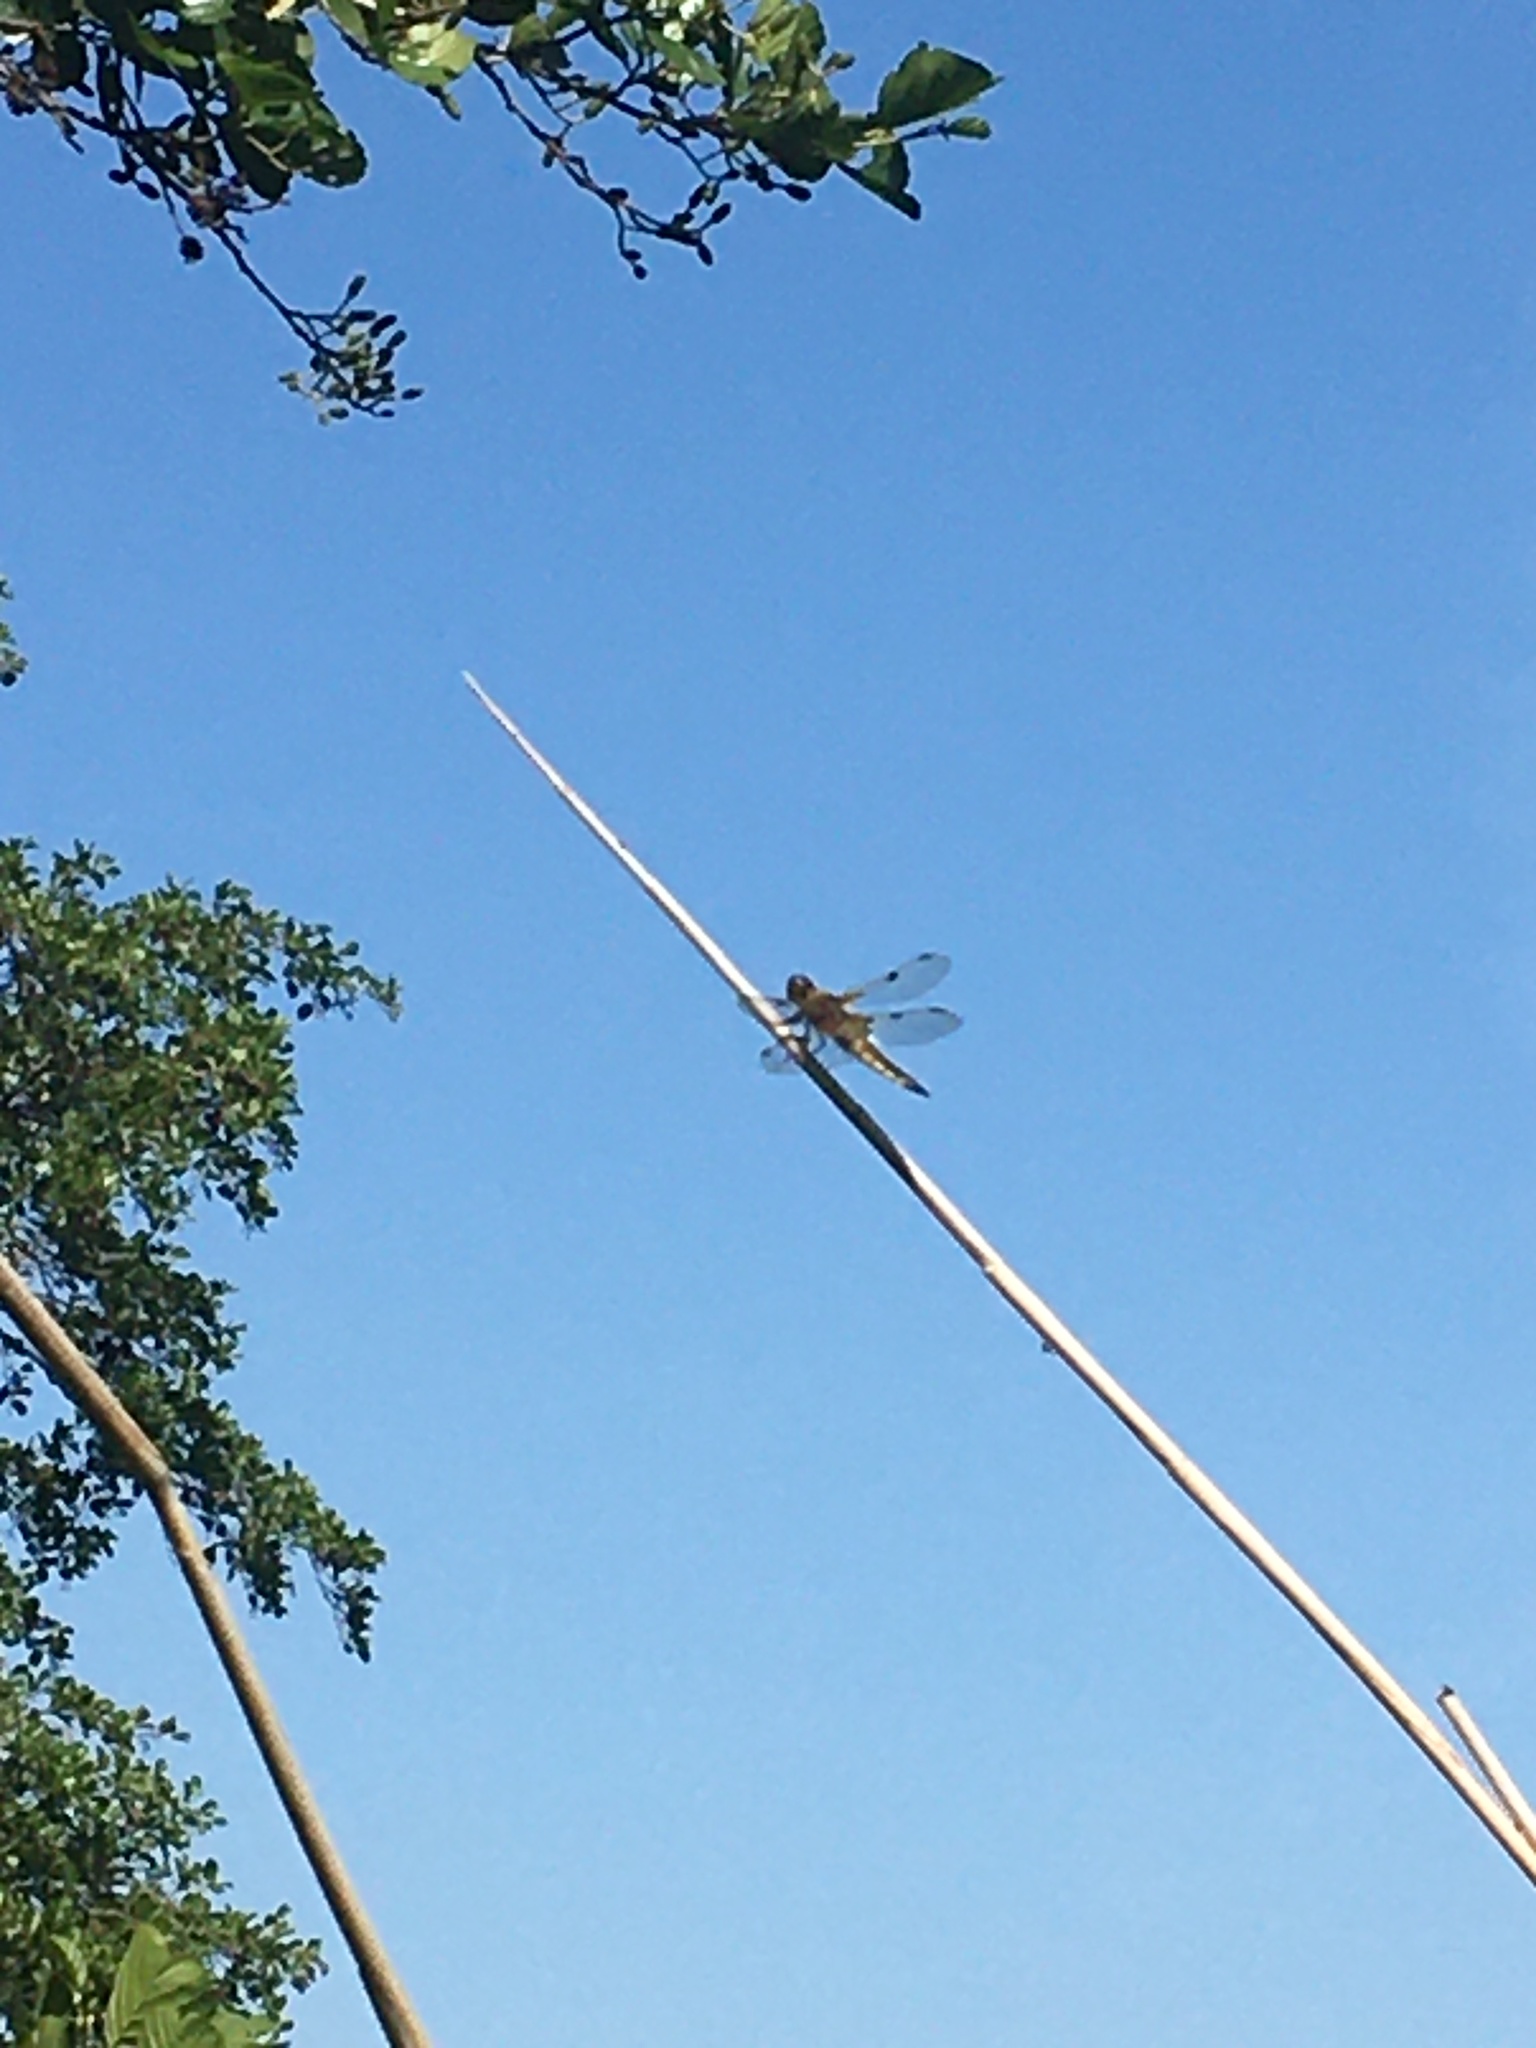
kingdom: Animalia
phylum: Arthropoda
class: Insecta
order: Odonata
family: Libellulidae
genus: Libellula
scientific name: Libellula quadrimaculata
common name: Four-spotted chaser
